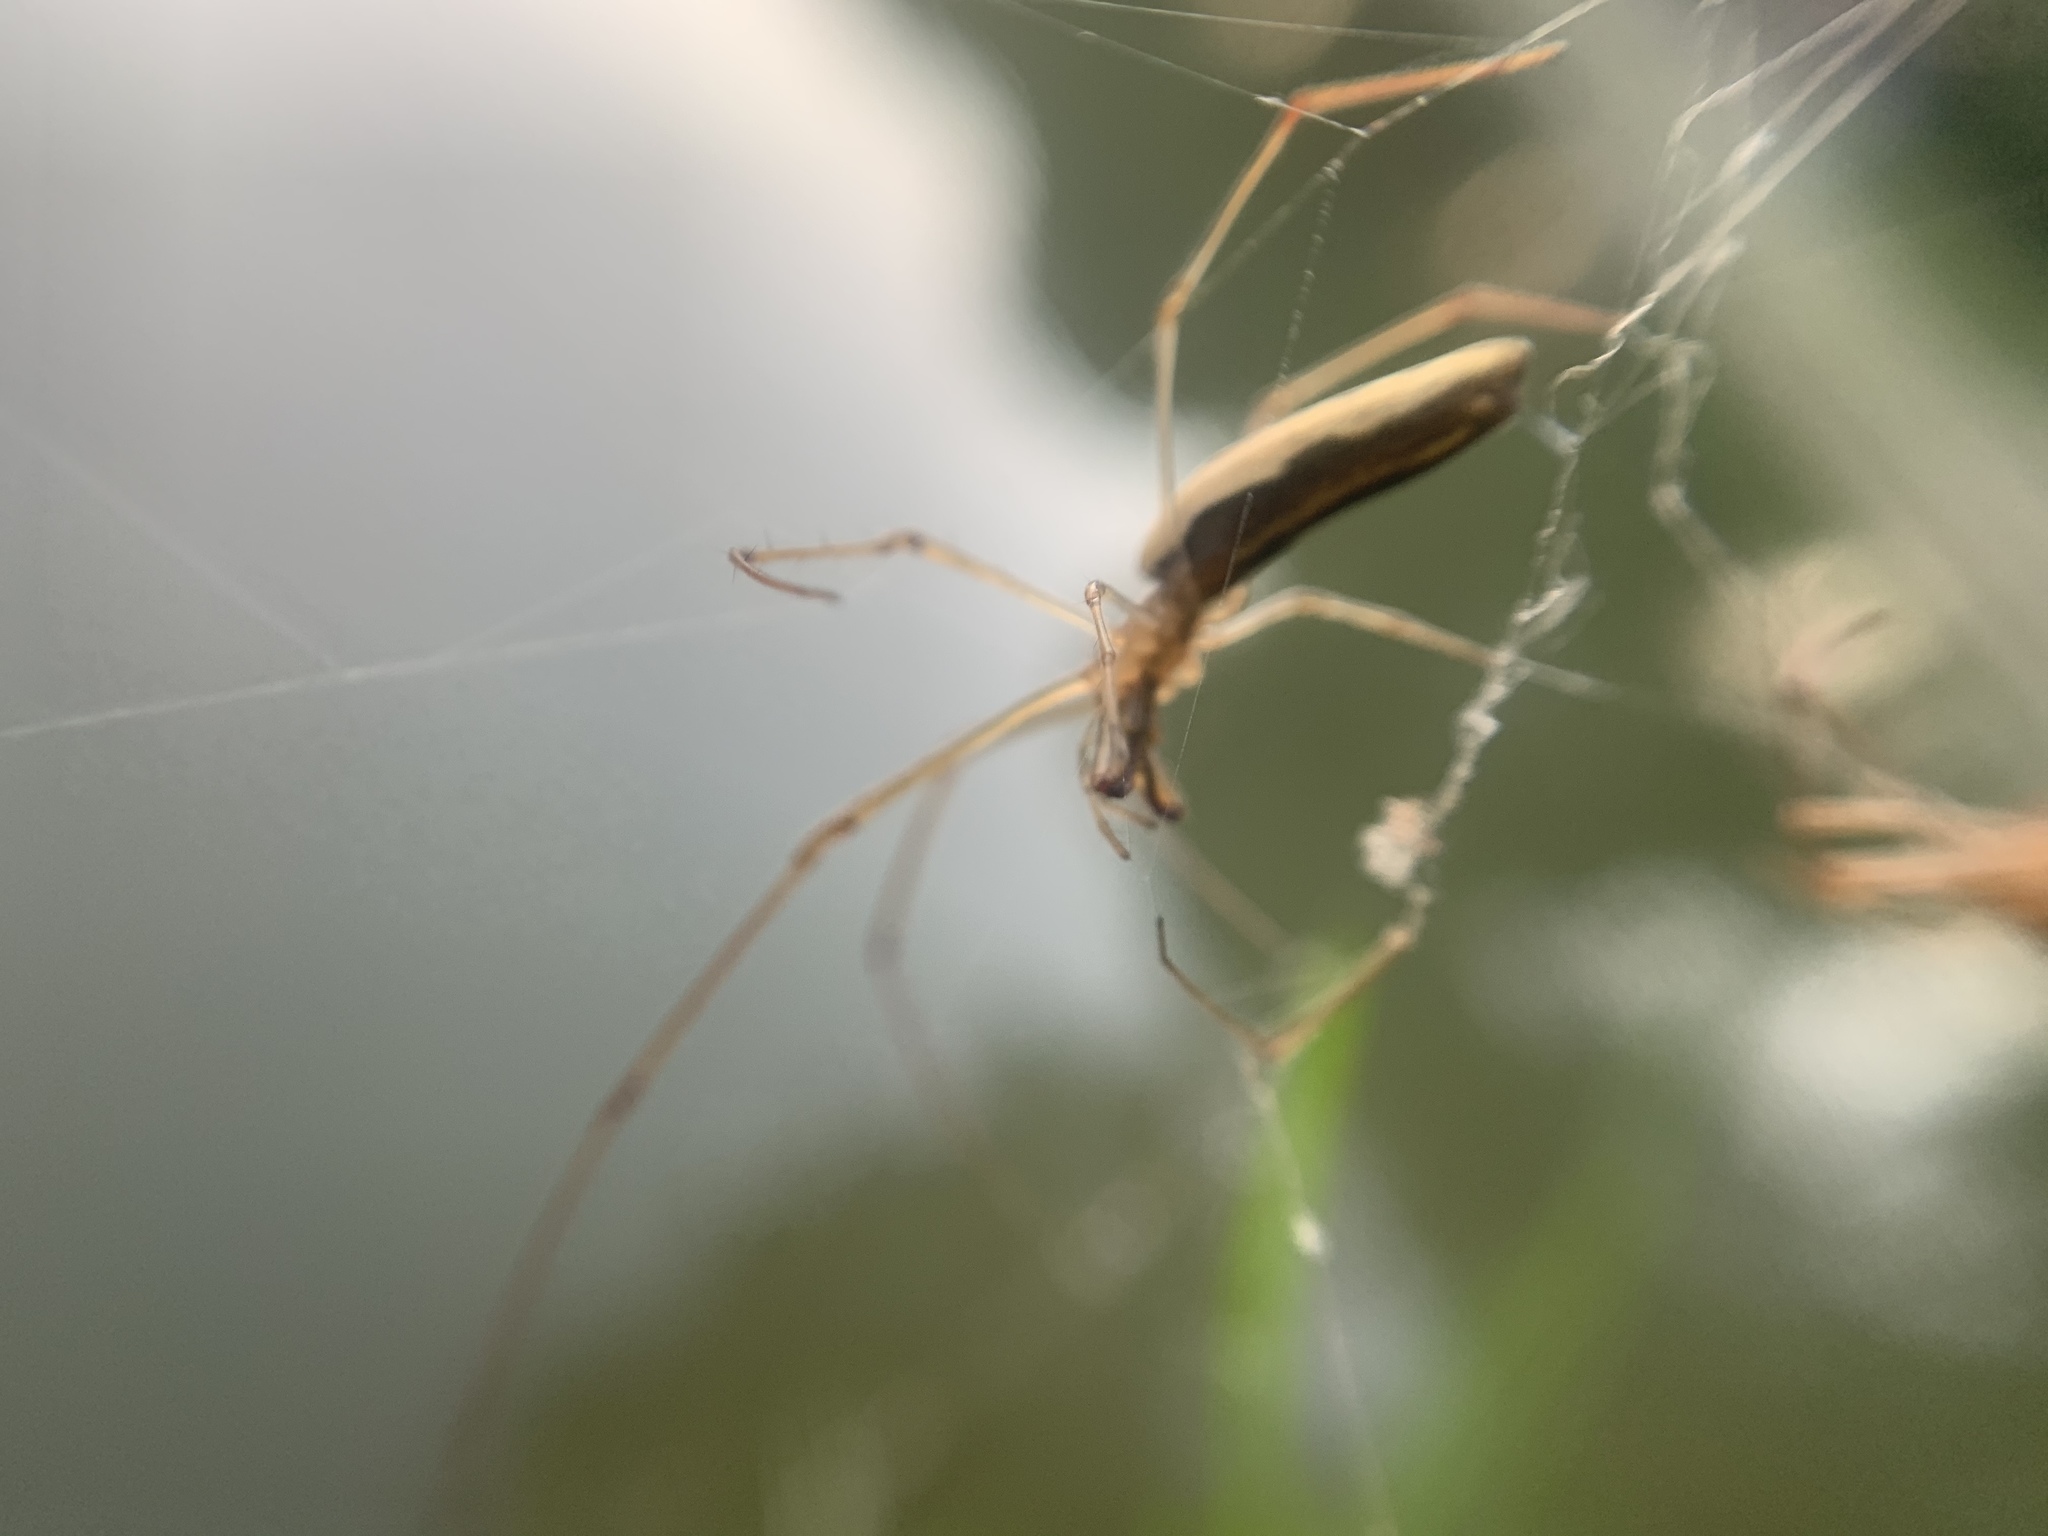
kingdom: Animalia
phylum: Arthropoda
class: Arachnida
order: Araneae
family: Tetragnathidae
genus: Tetragnatha
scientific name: Tetragnatha
